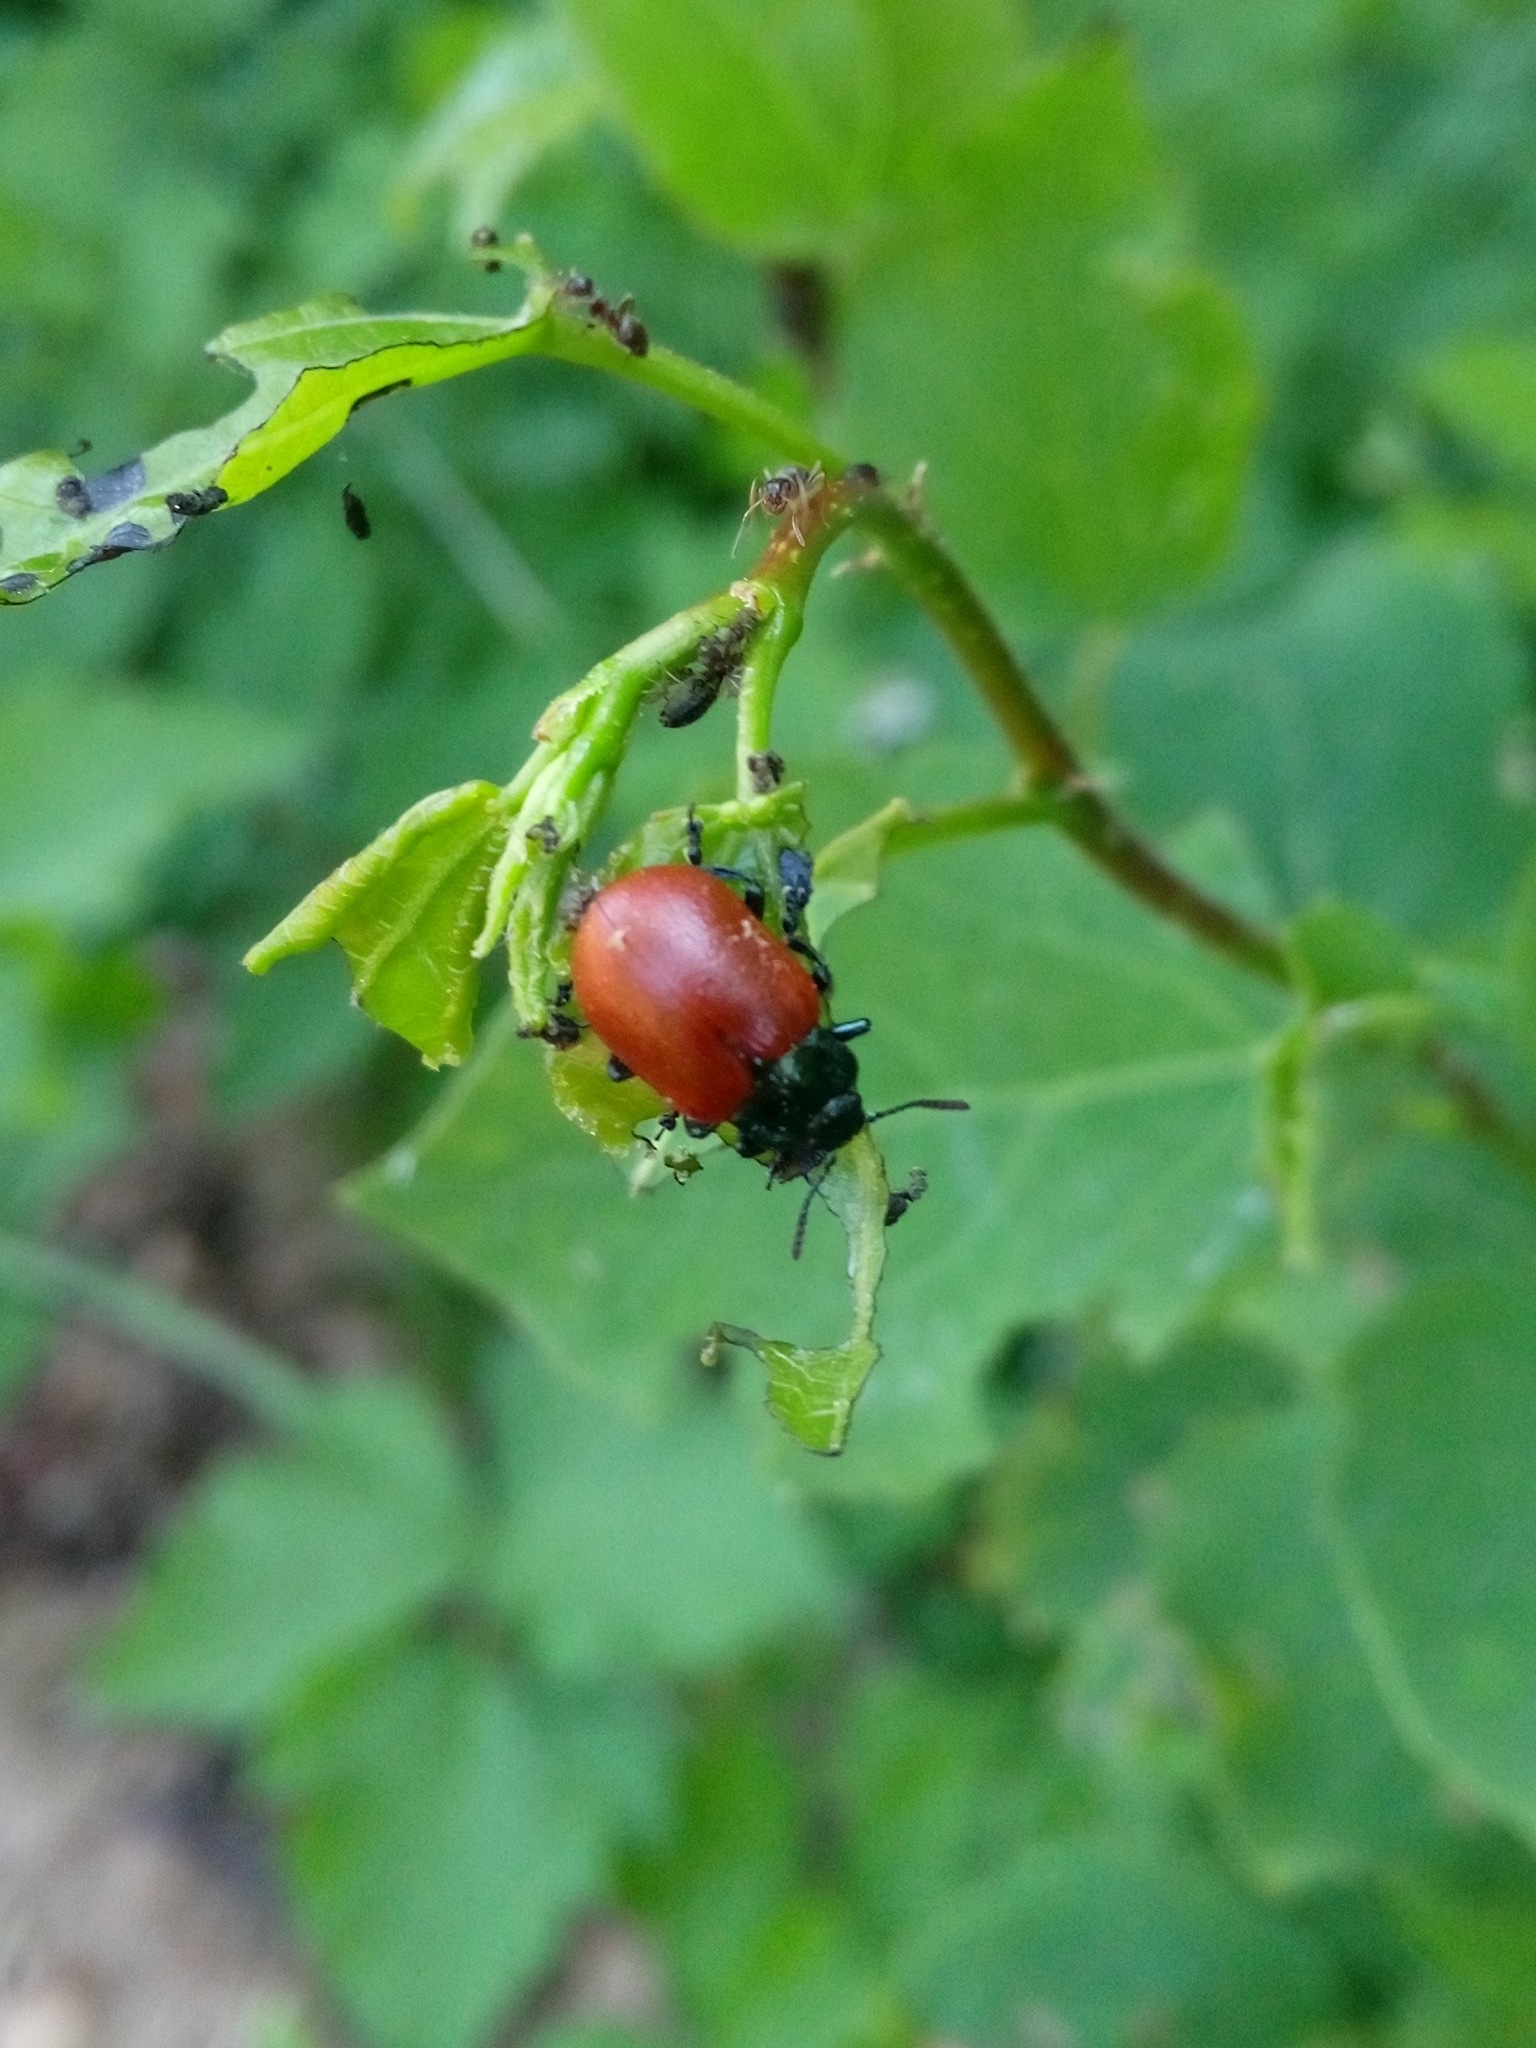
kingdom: Animalia
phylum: Arthropoda
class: Insecta
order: Coleoptera
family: Chrysomelidae
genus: Chrysomela
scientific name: Chrysomela populi
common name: Red poplar leaf beetle
